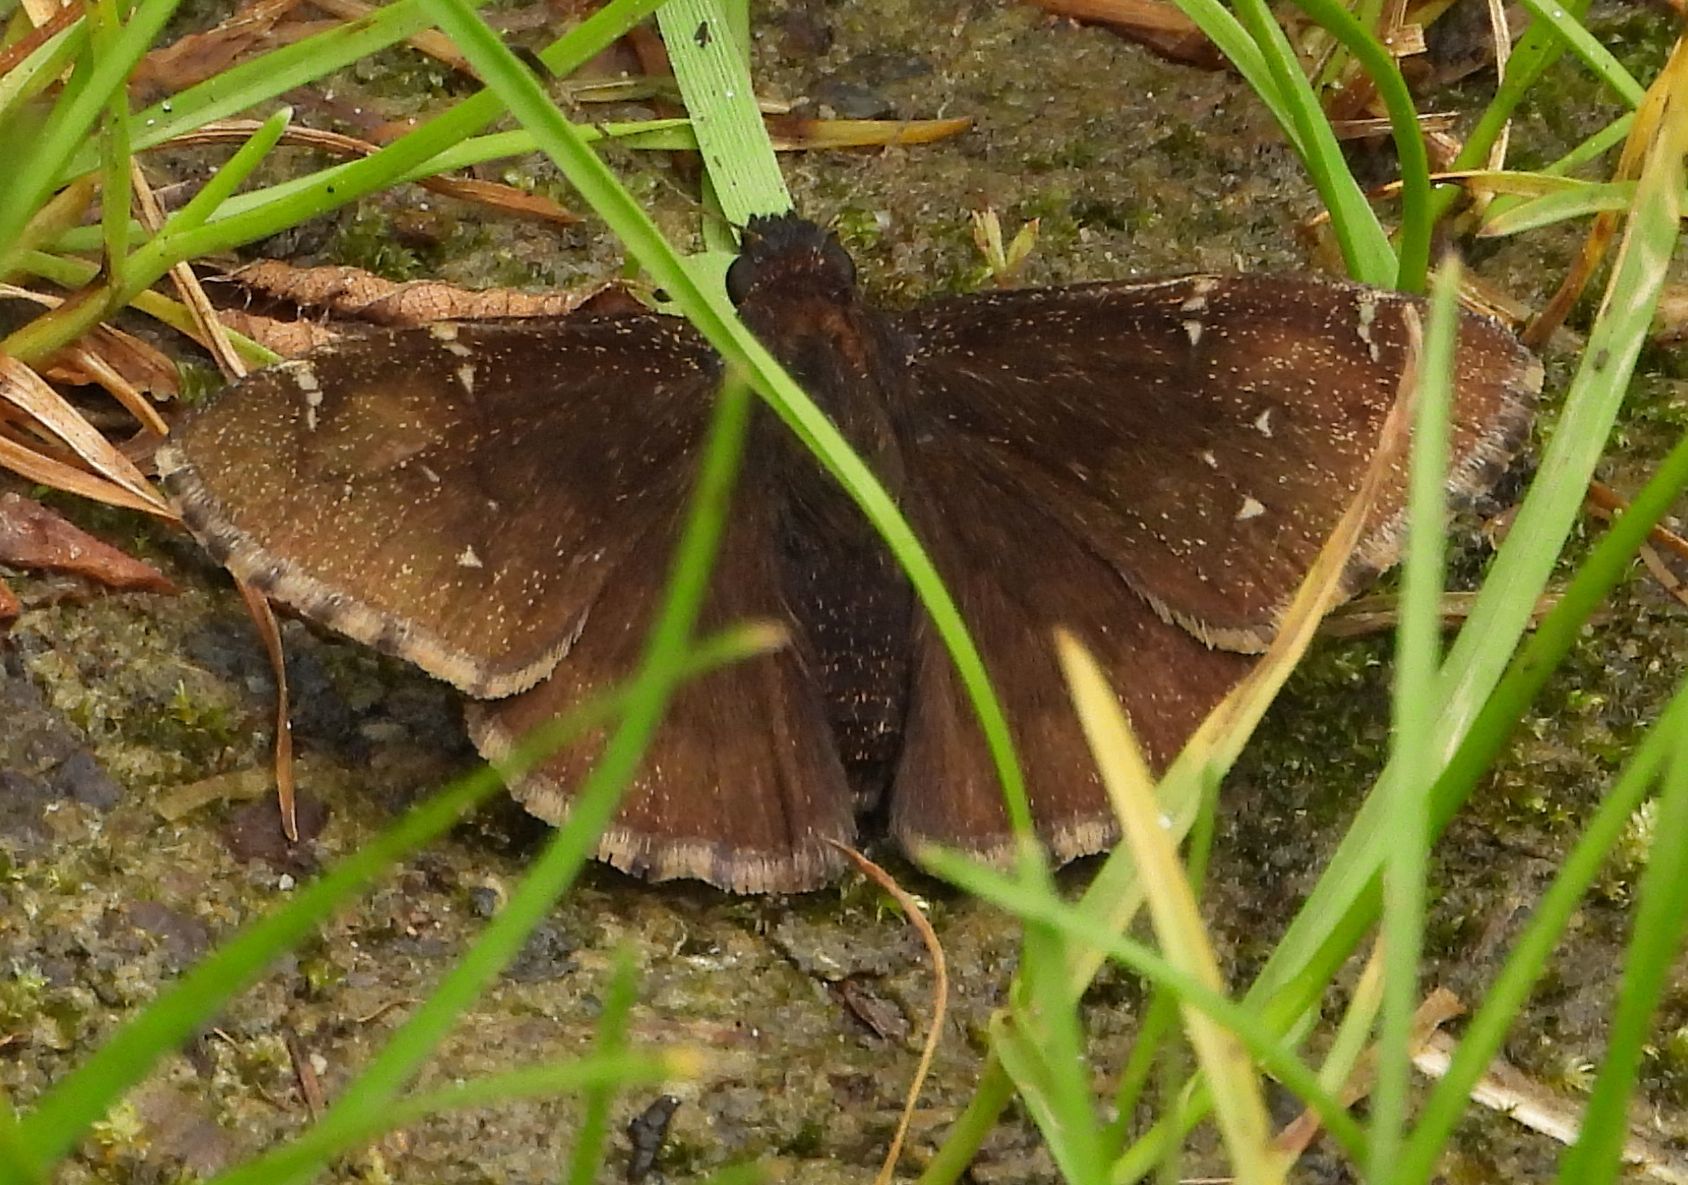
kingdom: Animalia
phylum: Arthropoda
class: Insecta
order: Lepidoptera
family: Hesperiidae
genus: Thorybes
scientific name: Thorybes pylades
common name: Northern cloudywing
